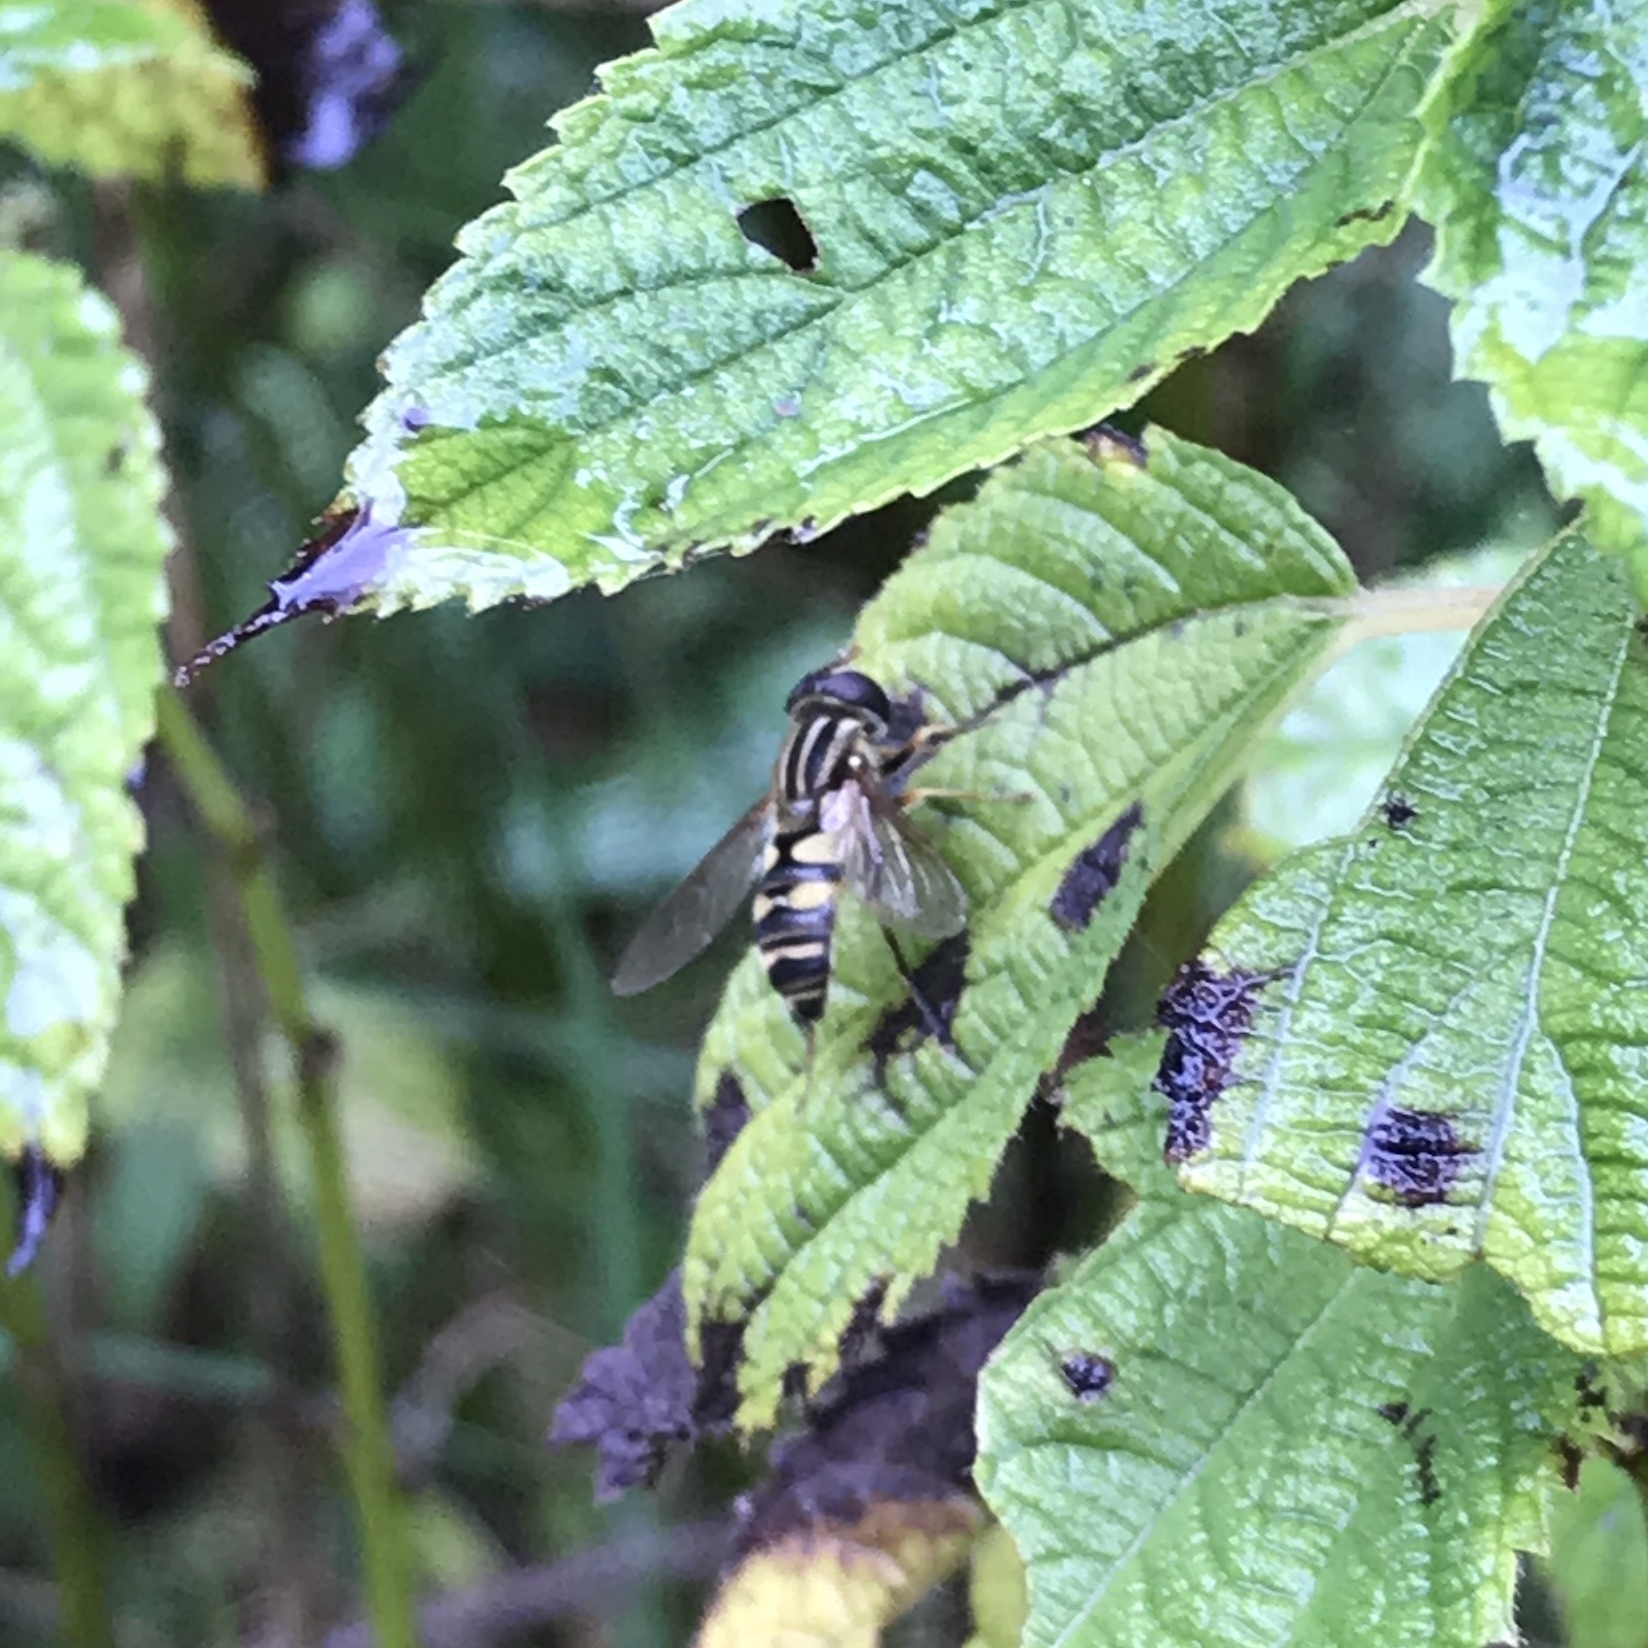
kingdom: Animalia
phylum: Arthropoda
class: Insecta
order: Diptera
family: Syrphidae
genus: Helophilus
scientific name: Helophilus fasciatus
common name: Narrow-headed marsh fly
